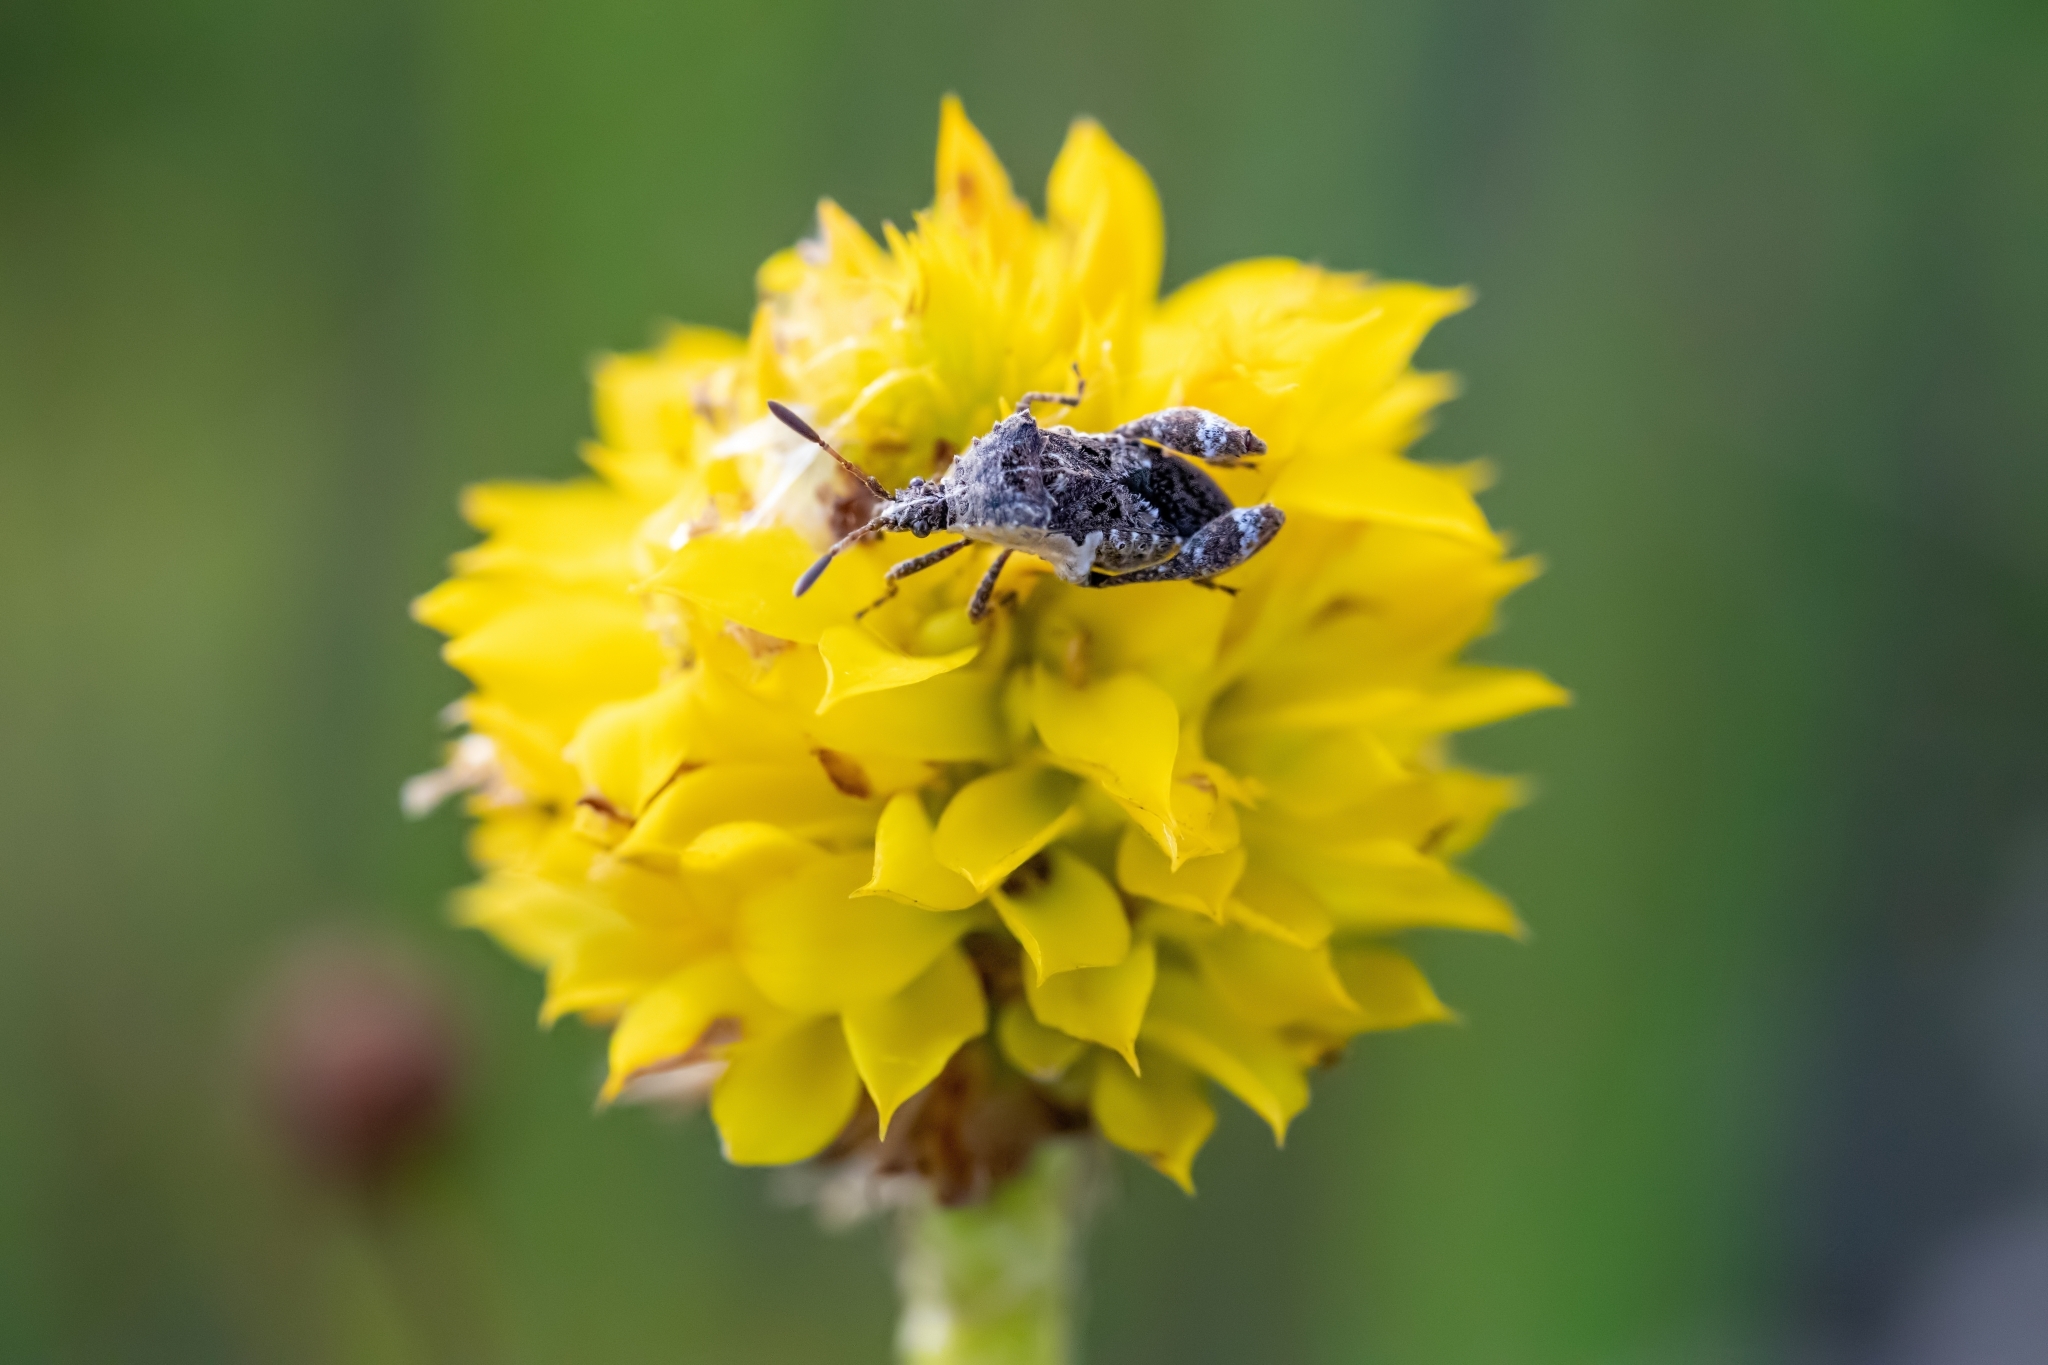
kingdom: Animalia
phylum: Arthropoda
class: Insecta
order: Hemiptera
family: Coreidae
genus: Merocoris
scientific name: Merocoris typhaeus
